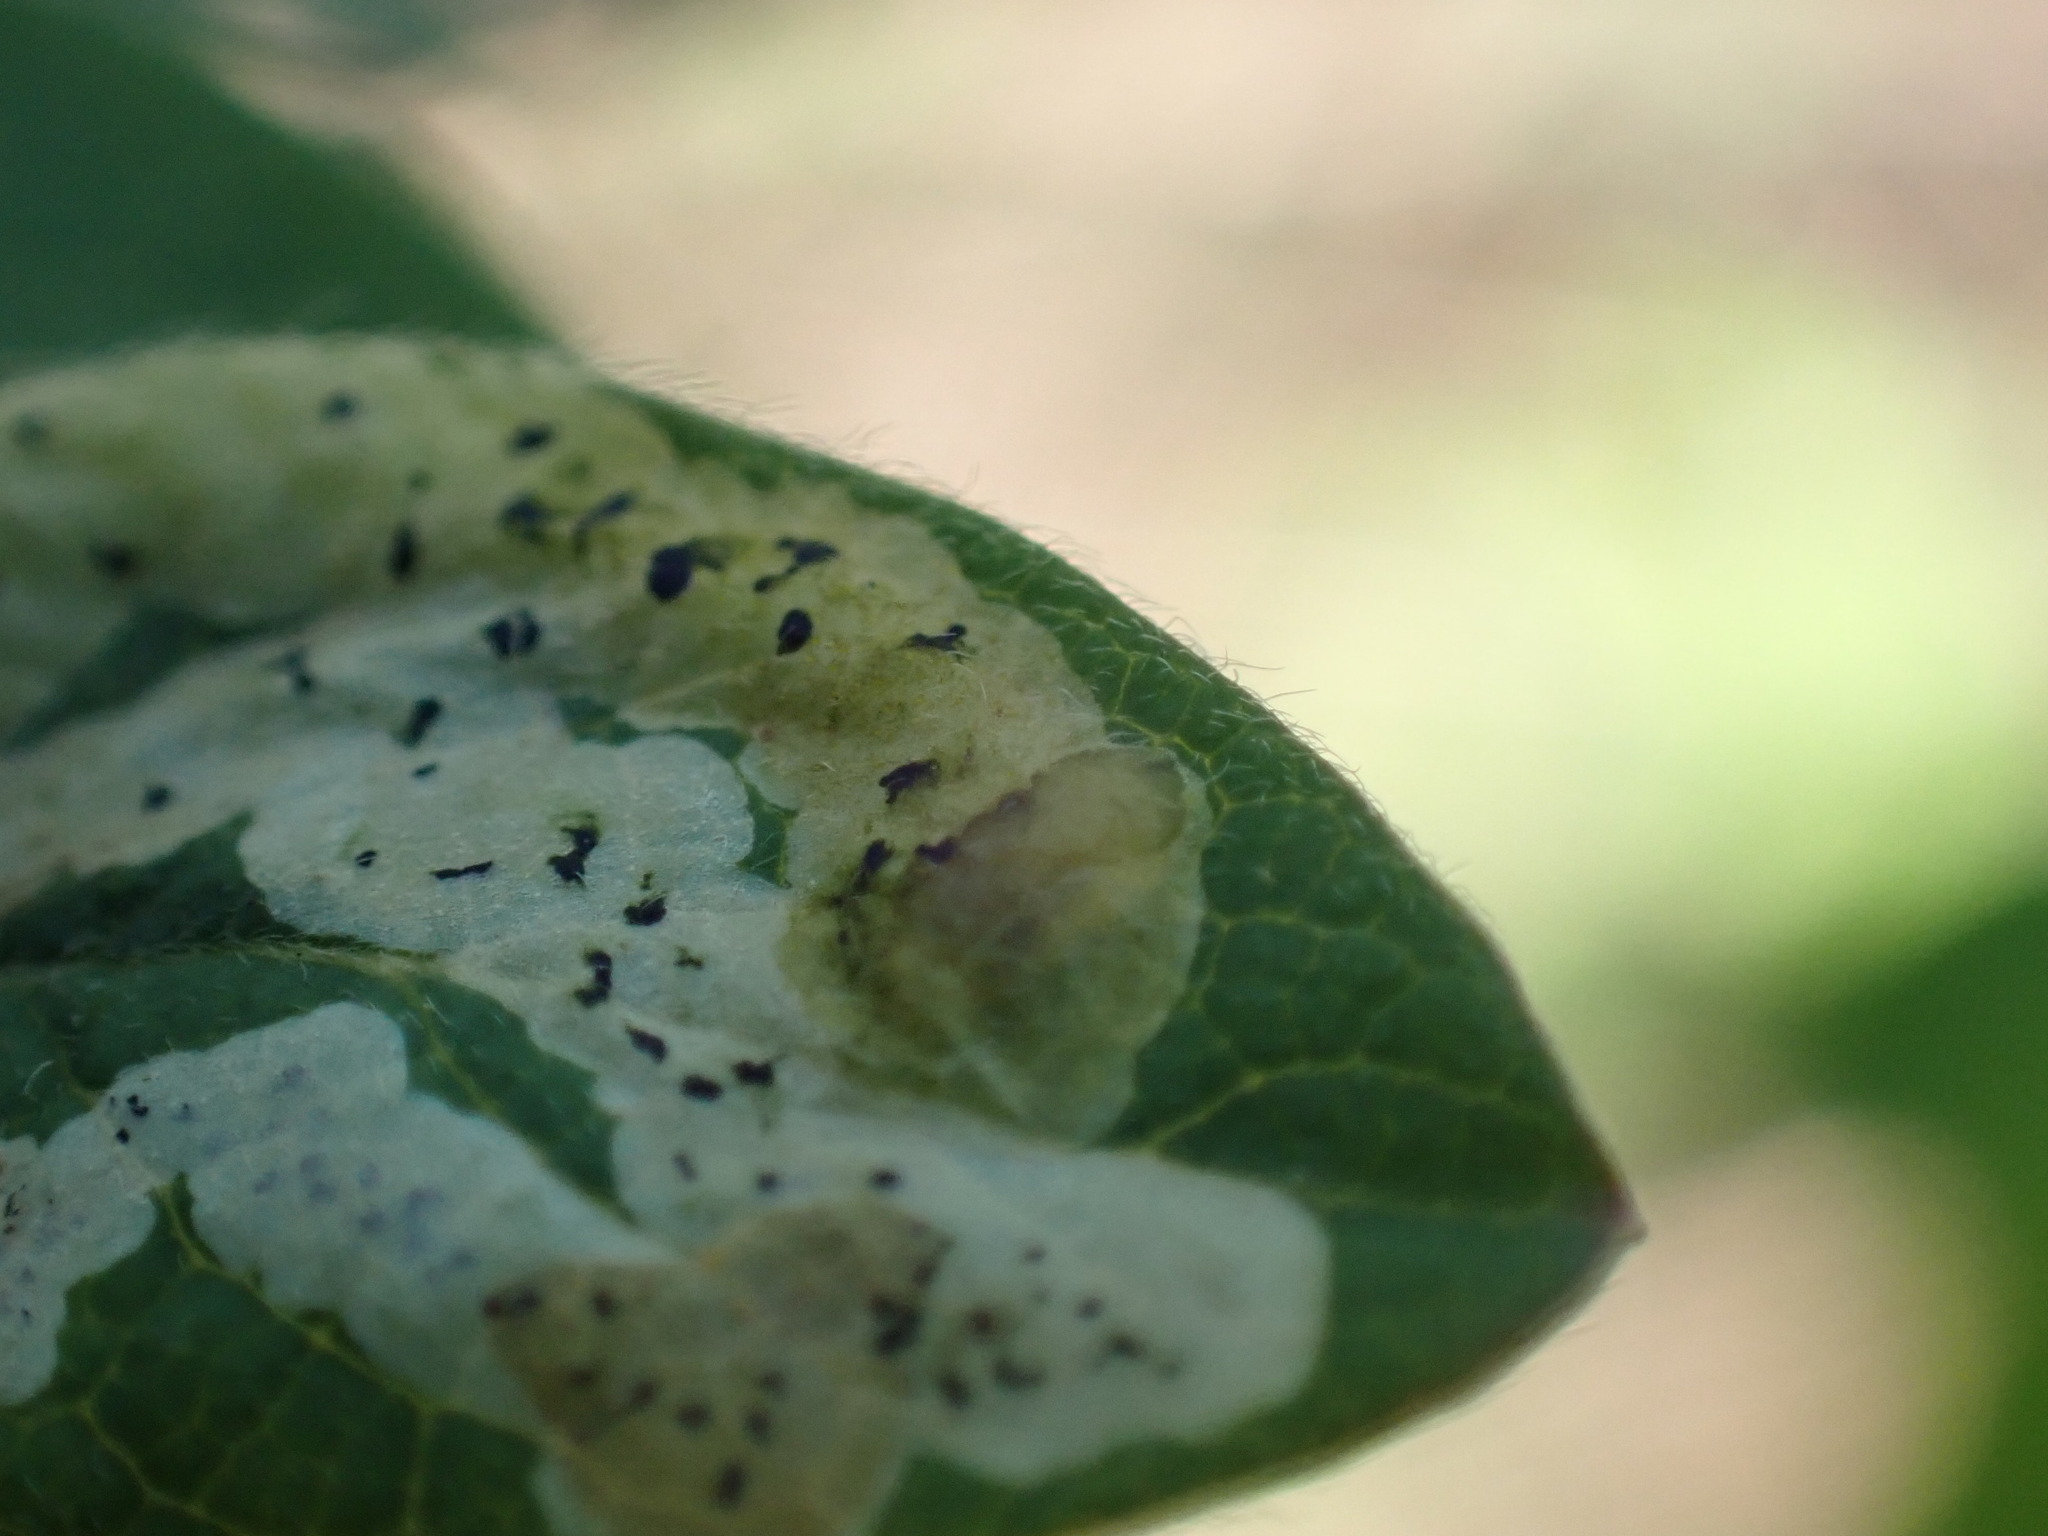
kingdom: Animalia
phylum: Arthropoda
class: Insecta
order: Diptera
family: Agromyzidae
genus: Aulagromyza
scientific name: Aulagromyza cornigera
